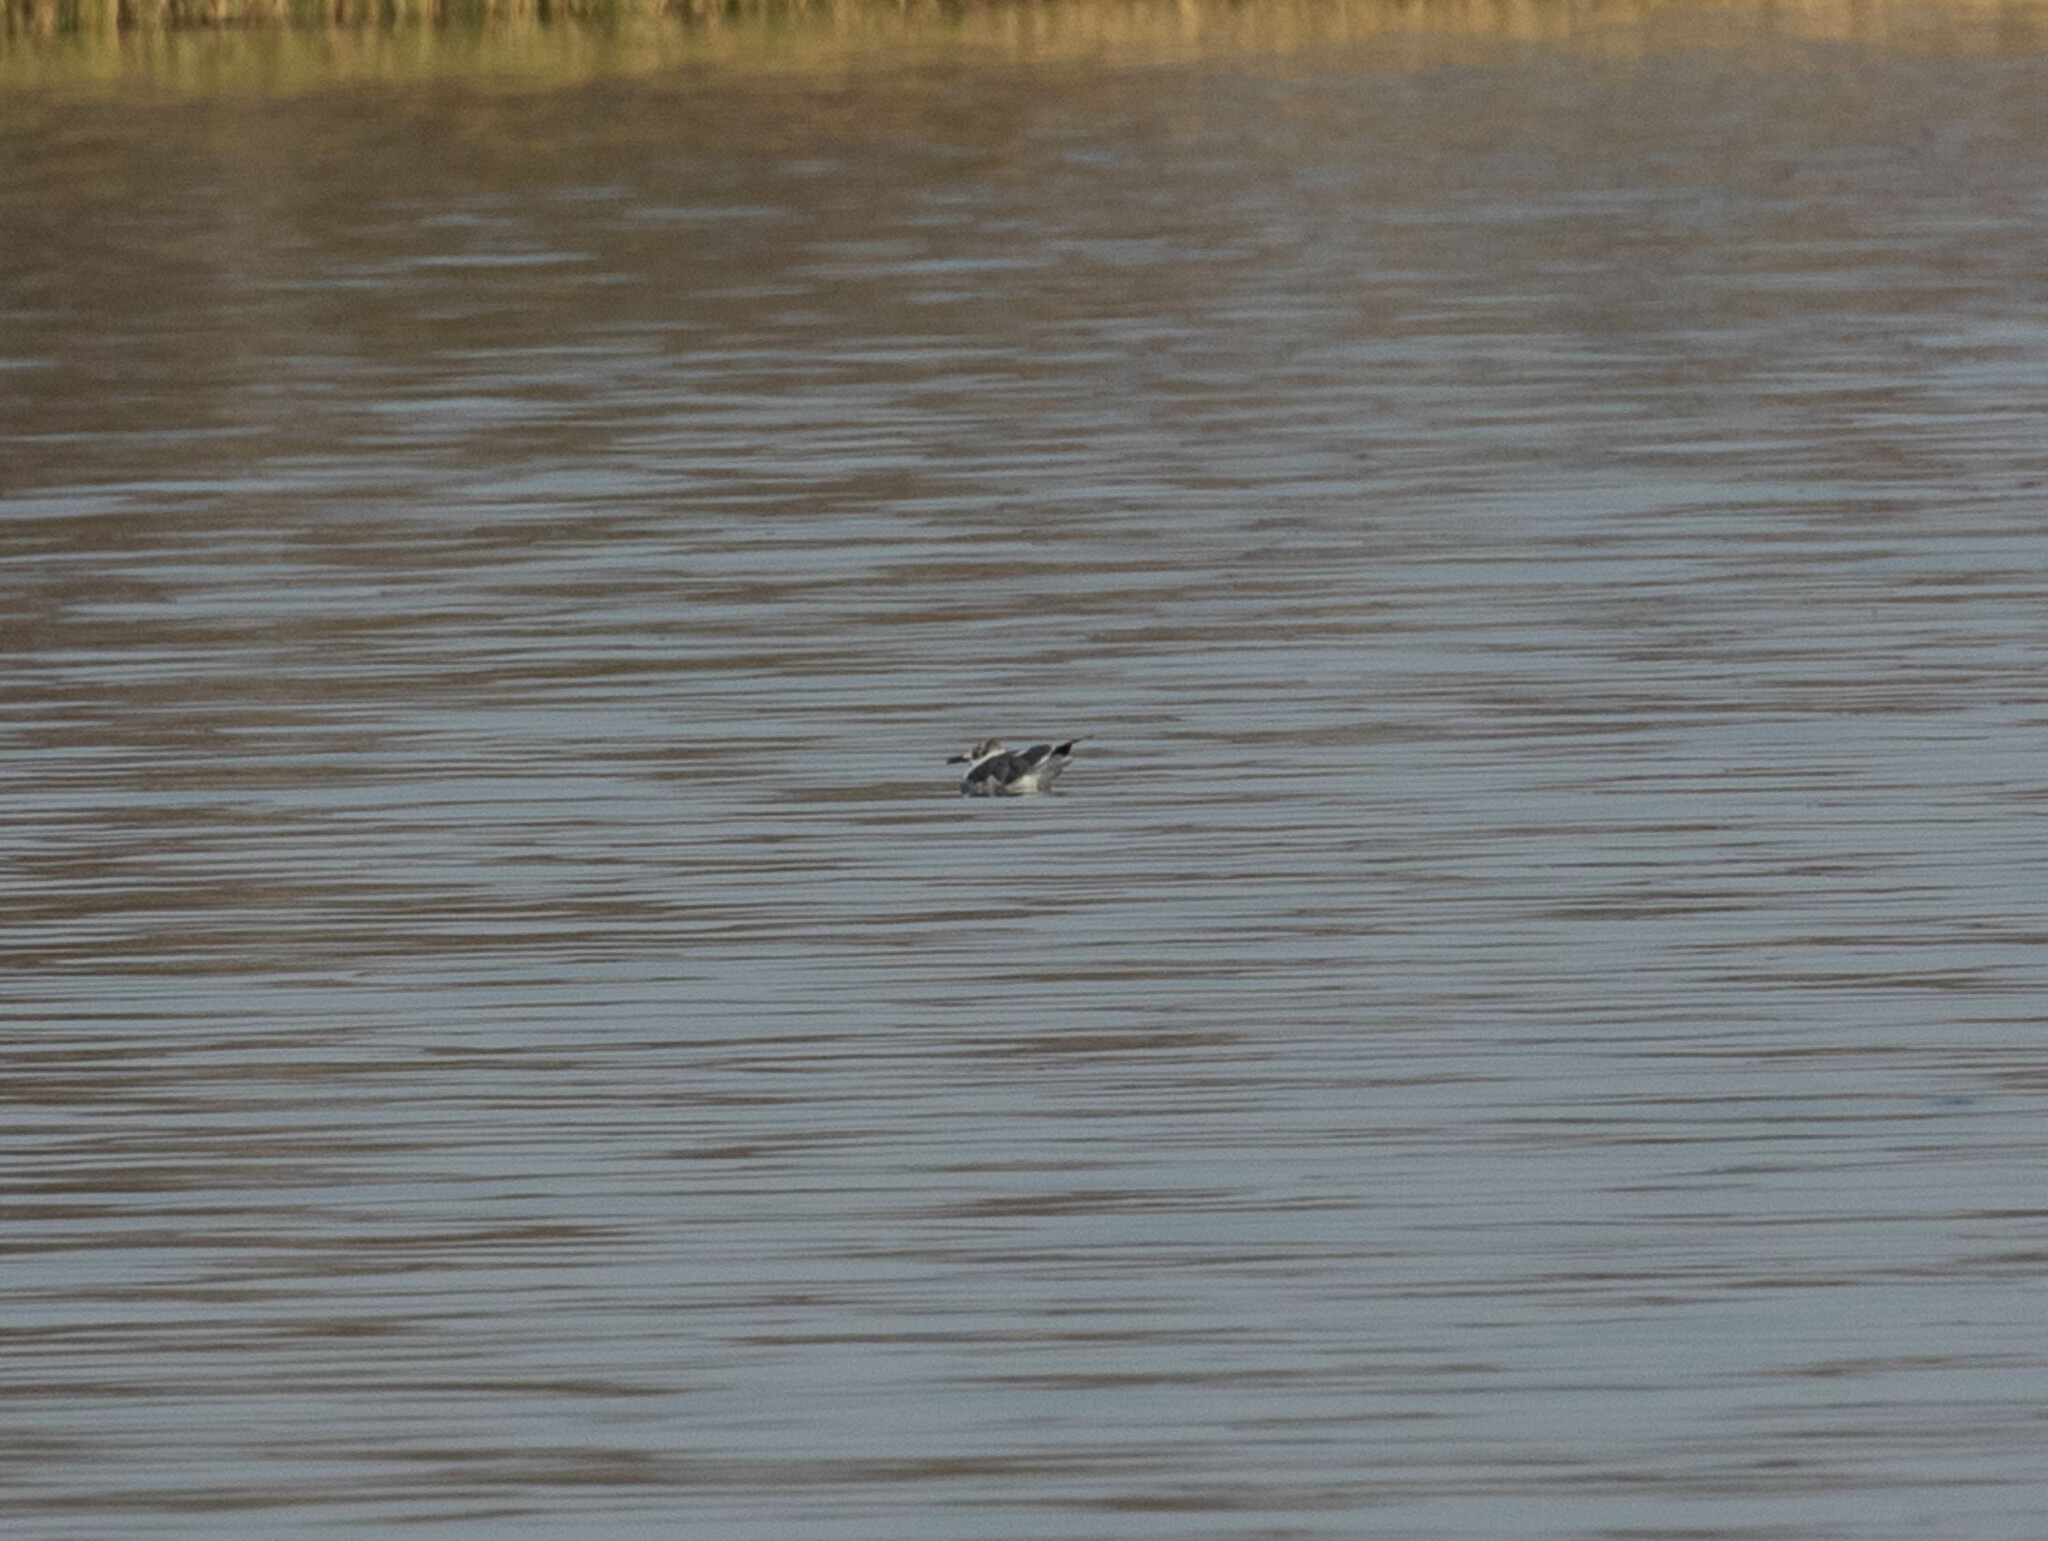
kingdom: Animalia
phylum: Chordata
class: Aves
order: Charadriiformes
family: Laridae
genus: Leucophaeus
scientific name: Leucophaeus atricilla
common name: Laughing gull
